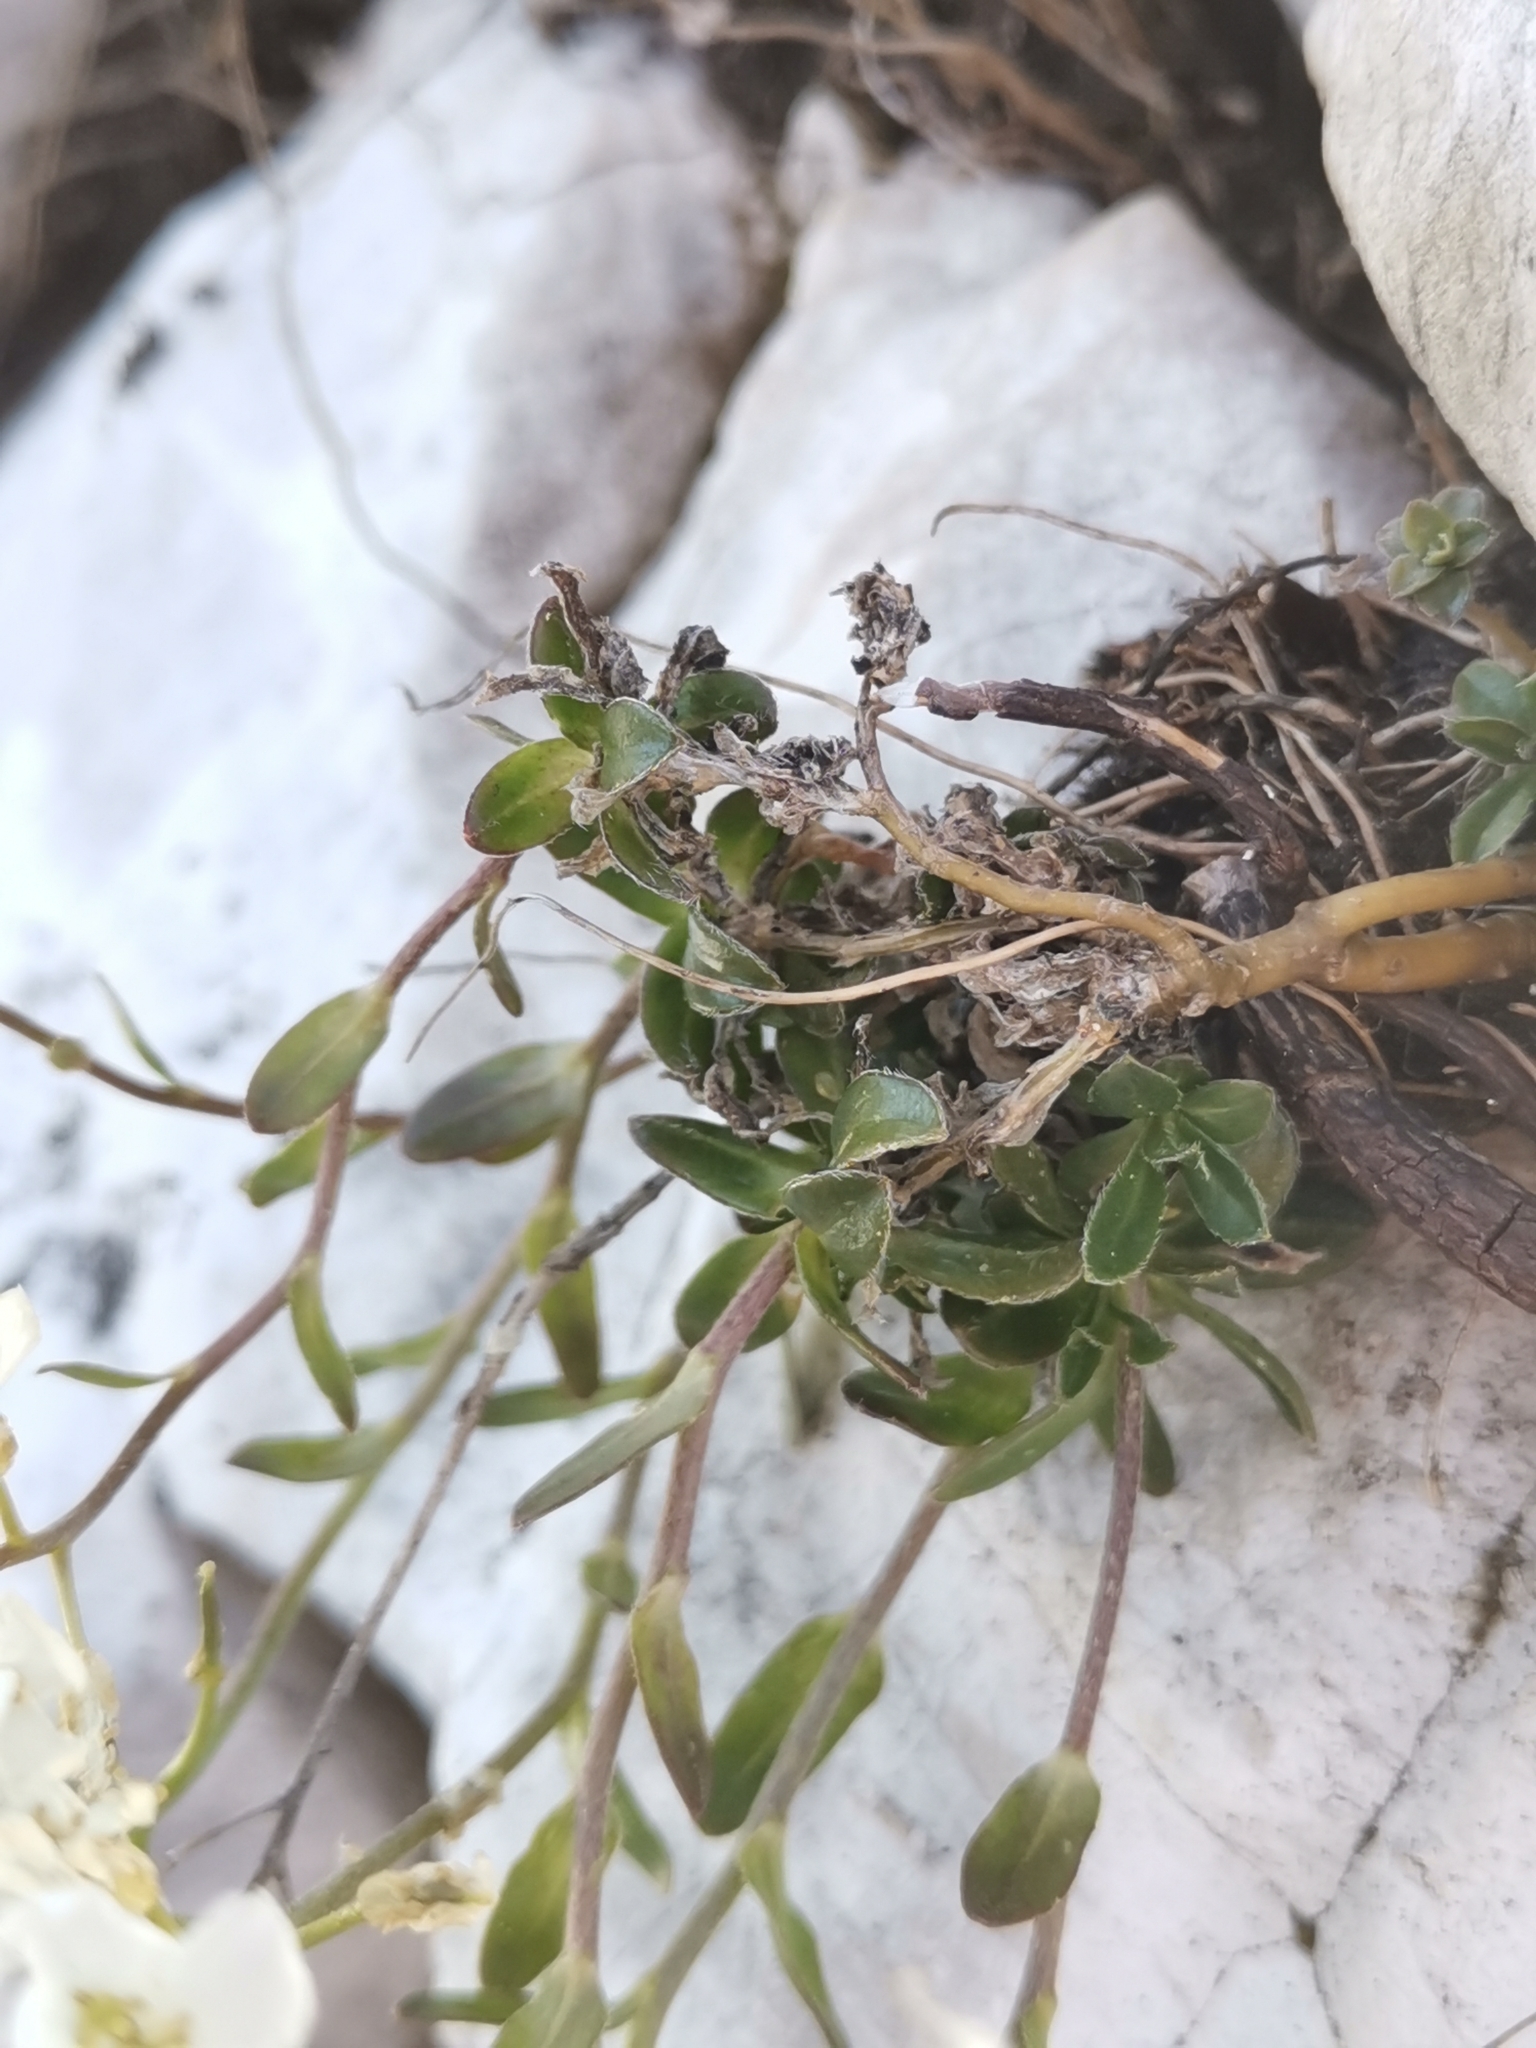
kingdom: Plantae
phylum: Tracheophyta
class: Magnoliopsida
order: Brassicales
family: Brassicaceae
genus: Arabis
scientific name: Arabis vochinensis
